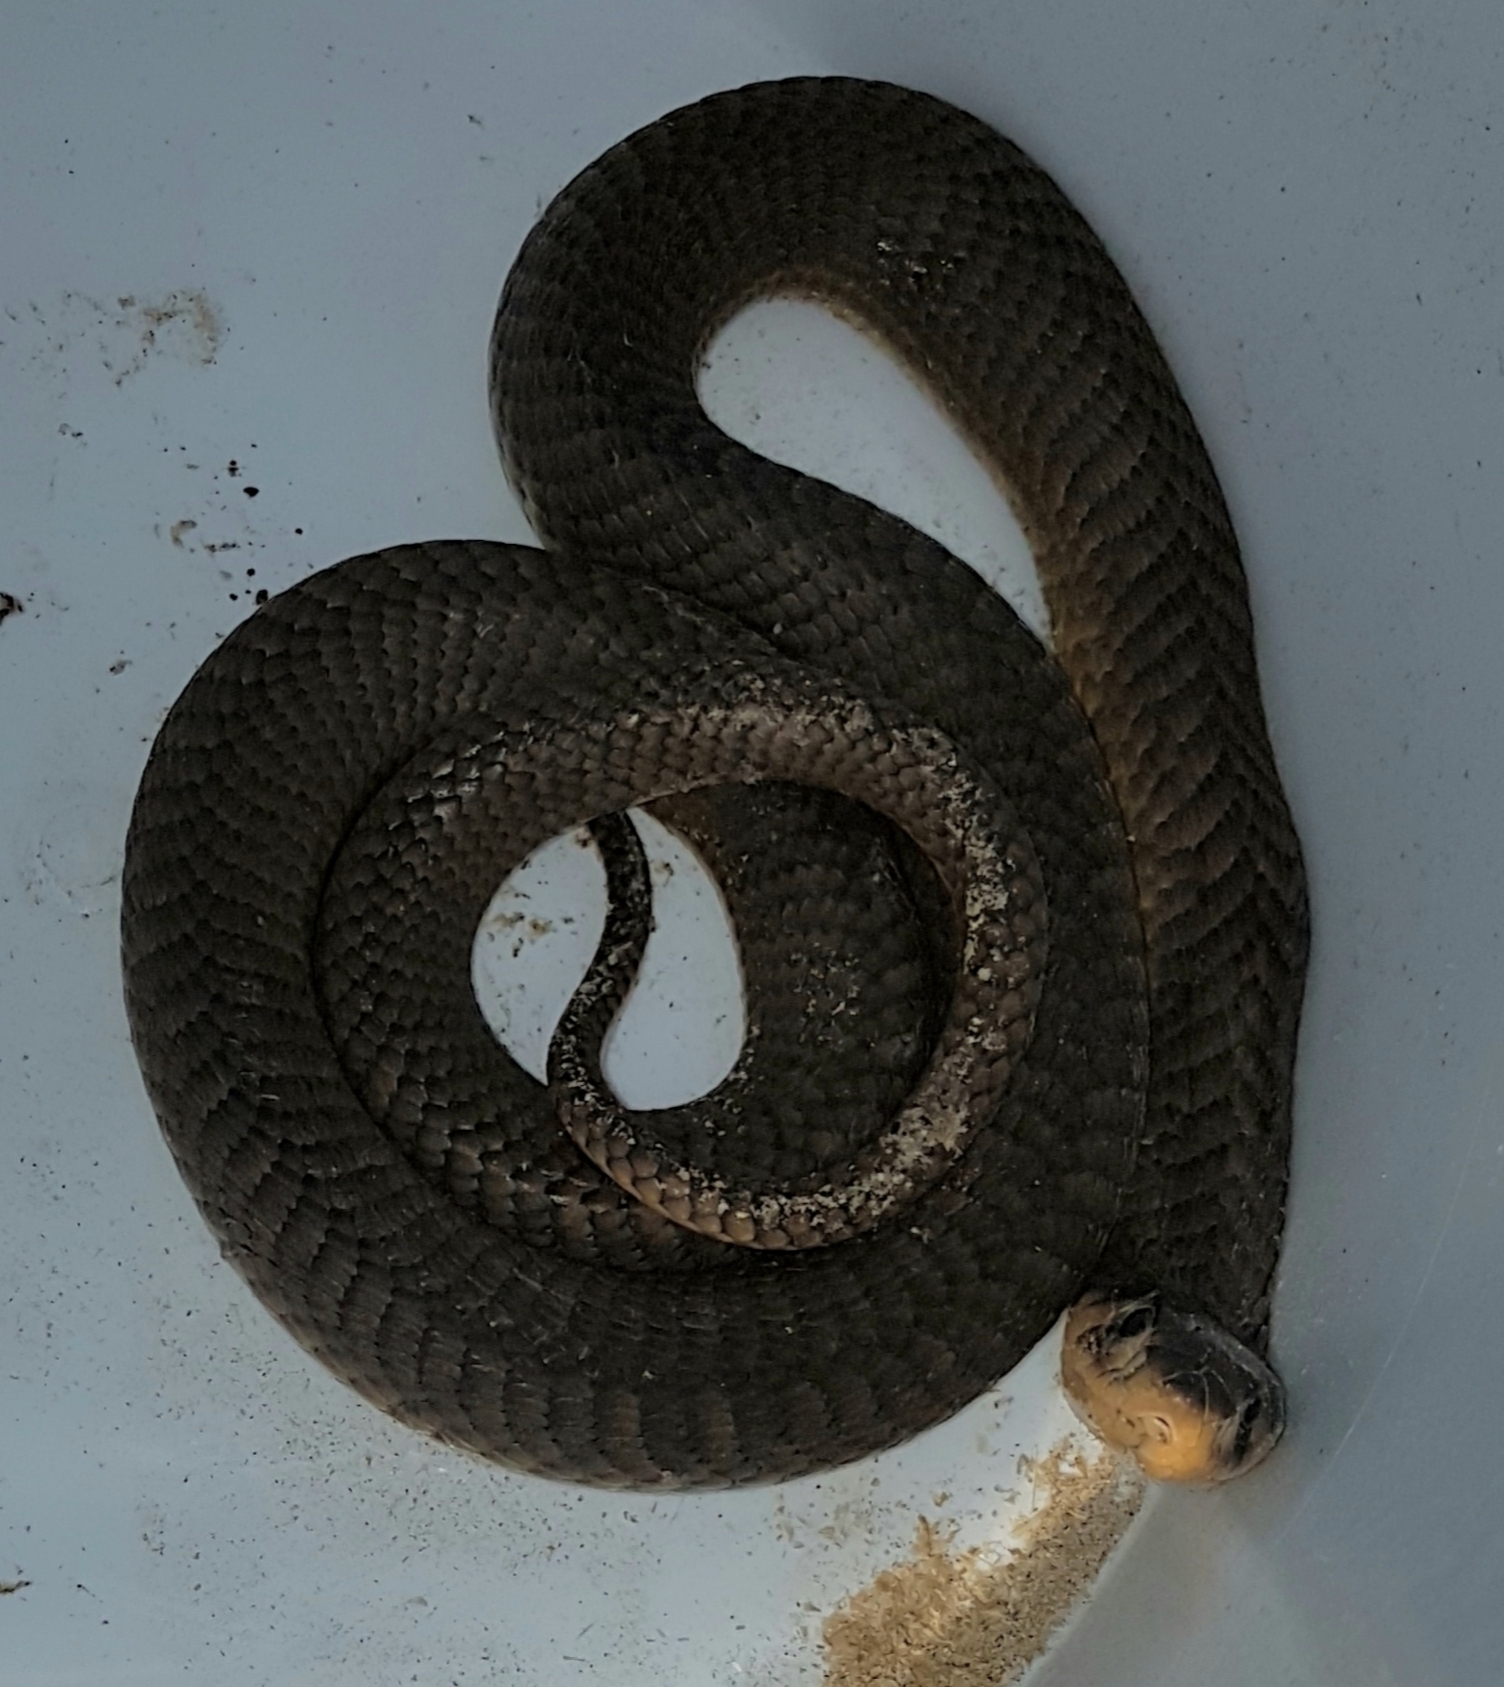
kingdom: Animalia
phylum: Chordata
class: Squamata
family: Elapidae
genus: Naja
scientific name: Naja annulifera
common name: Snouted cobra
